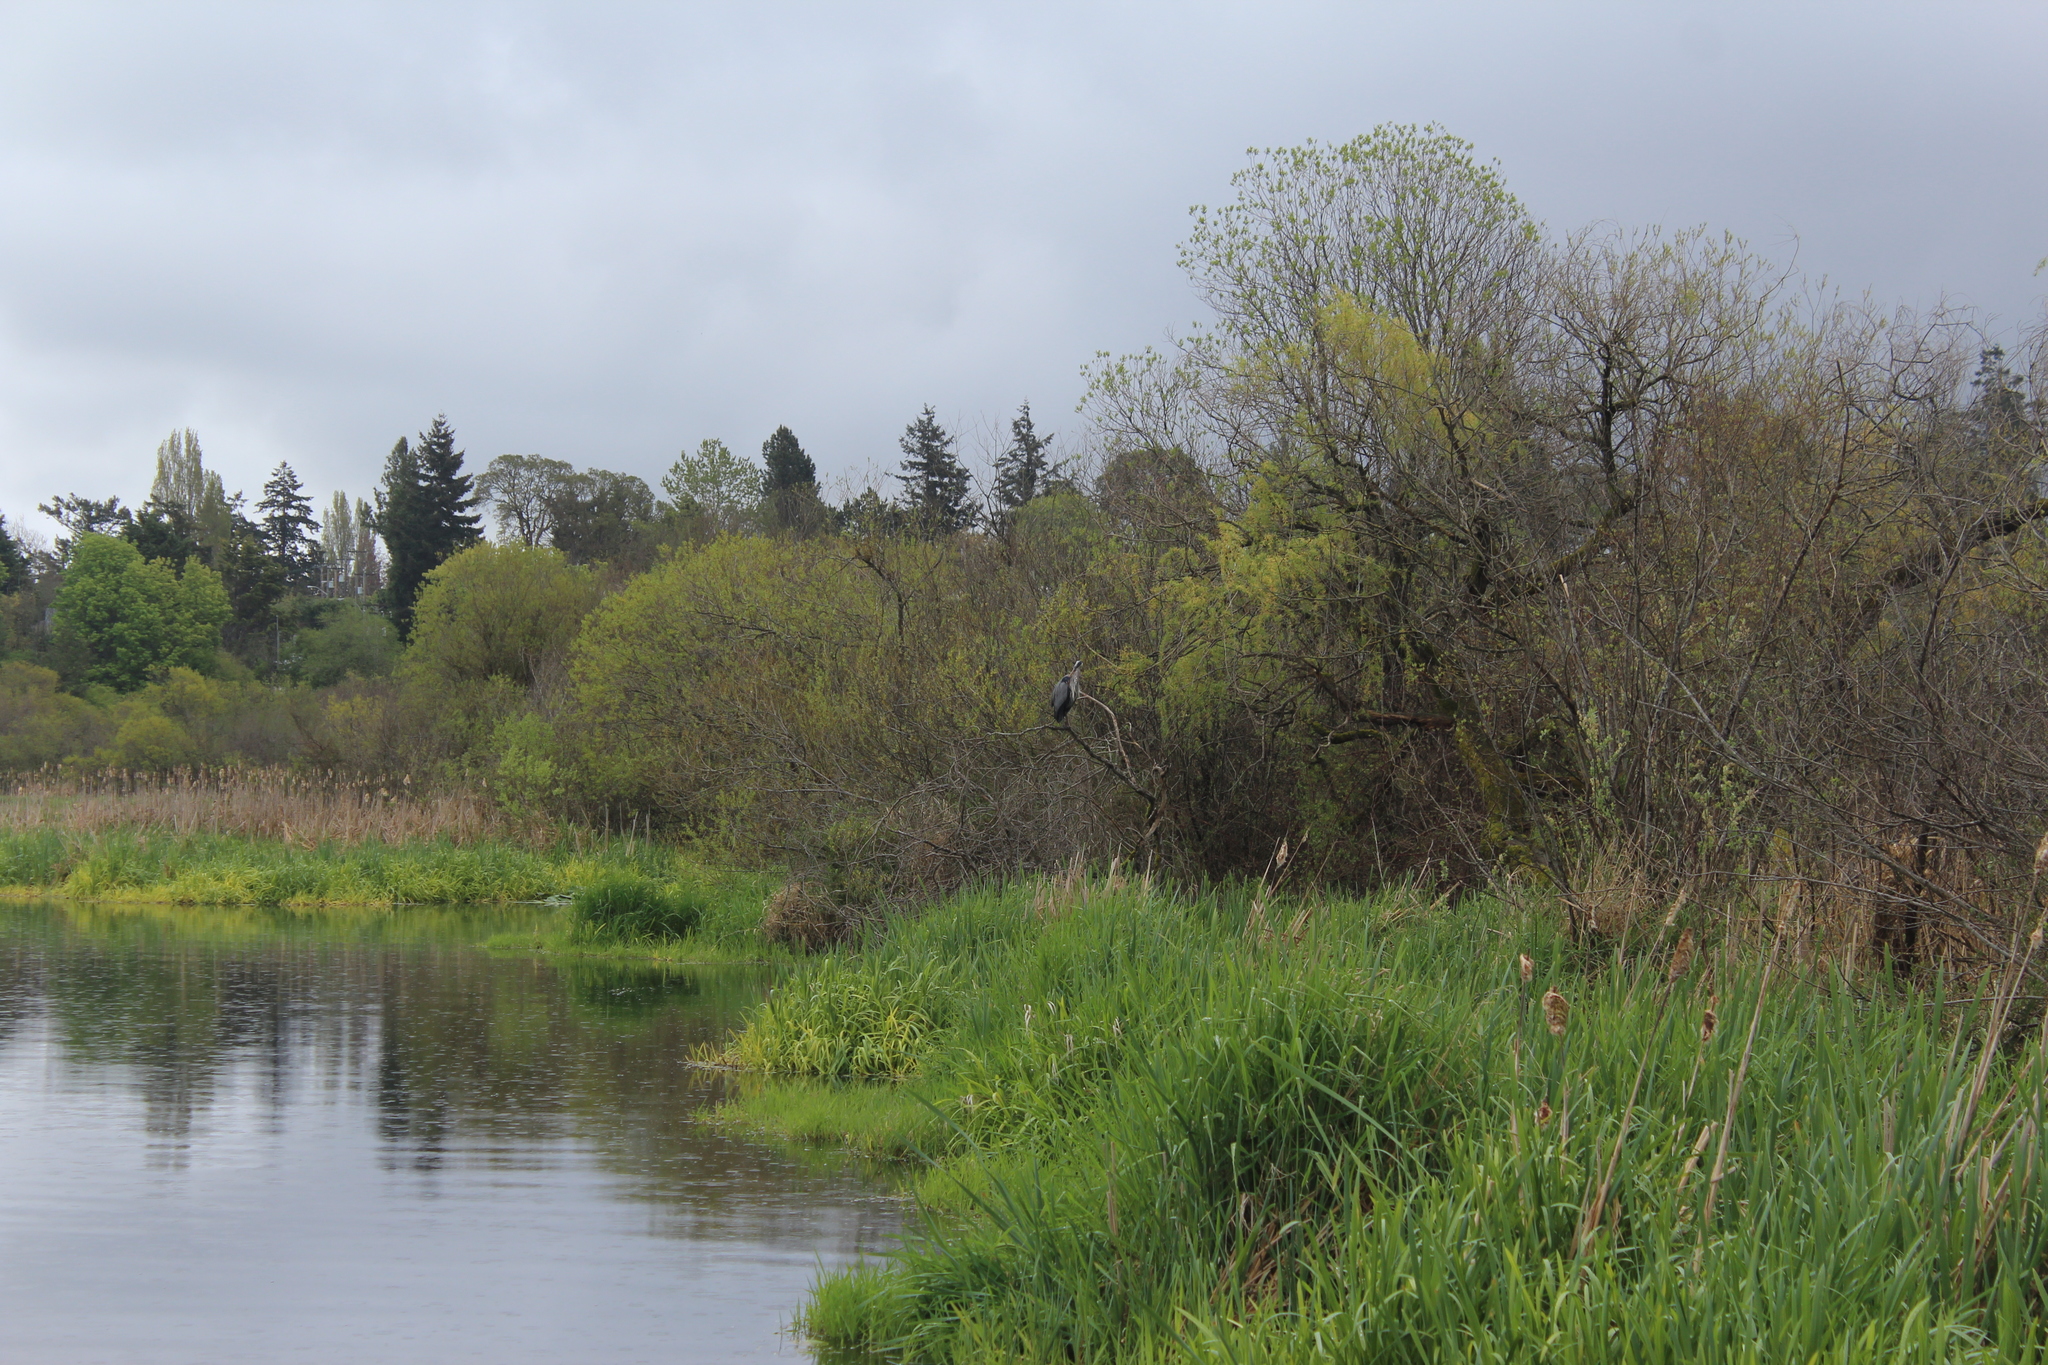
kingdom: Animalia
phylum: Chordata
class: Aves
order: Pelecaniformes
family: Ardeidae
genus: Ardea
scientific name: Ardea herodias
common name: Great blue heron
